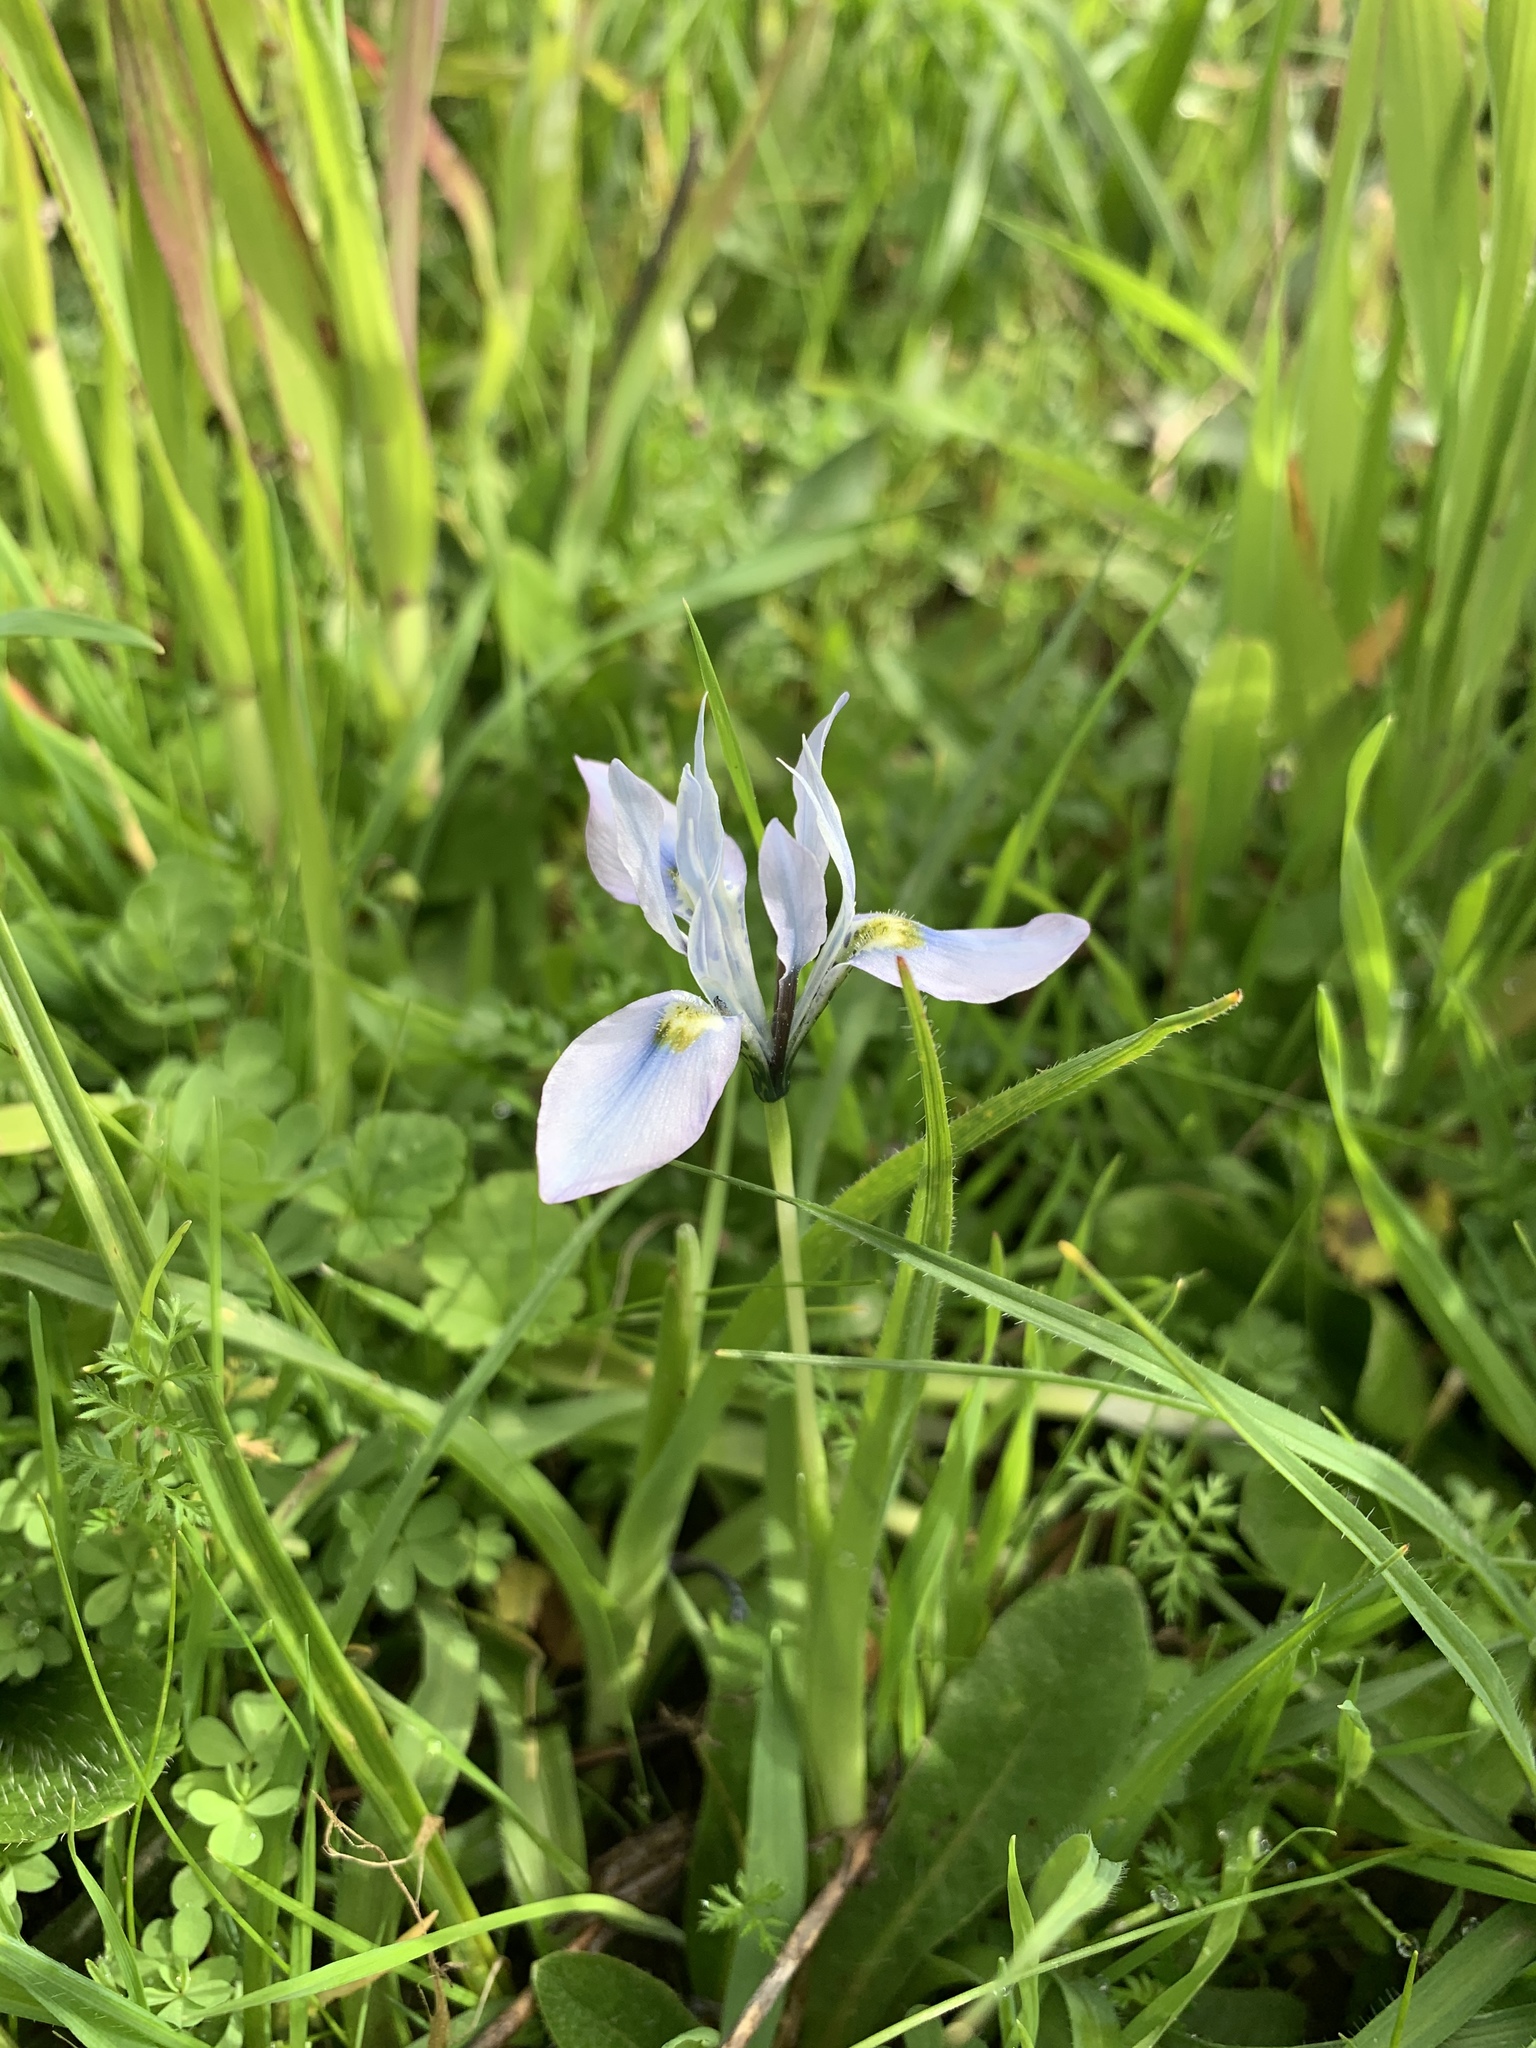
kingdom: Plantae
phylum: Tracheophyta
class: Liliopsida
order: Asparagales
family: Iridaceae
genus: Moraea
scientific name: Moraea ciliata
